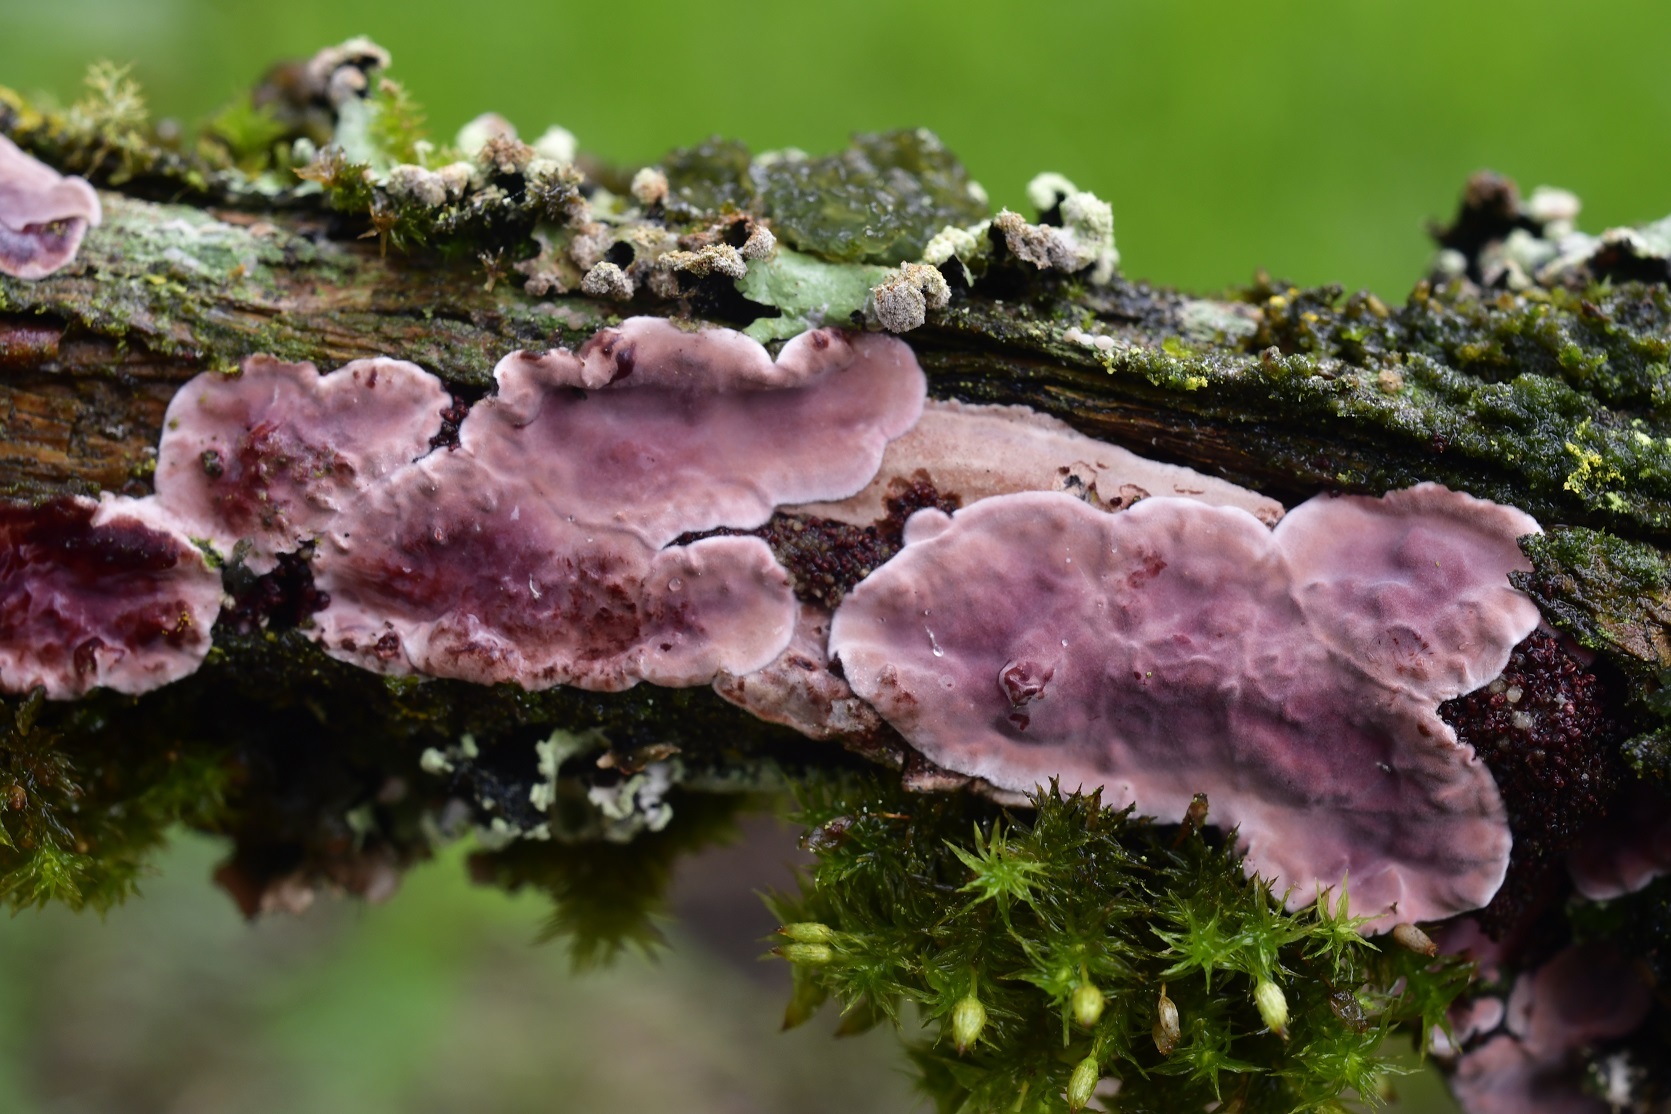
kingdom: Fungi
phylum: Basidiomycota
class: Agaricomycetes
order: Agaricales
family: Cyphellaceae
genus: Chondrostereum
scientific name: Chondrostereum purpureum
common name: Silver leaf disease
